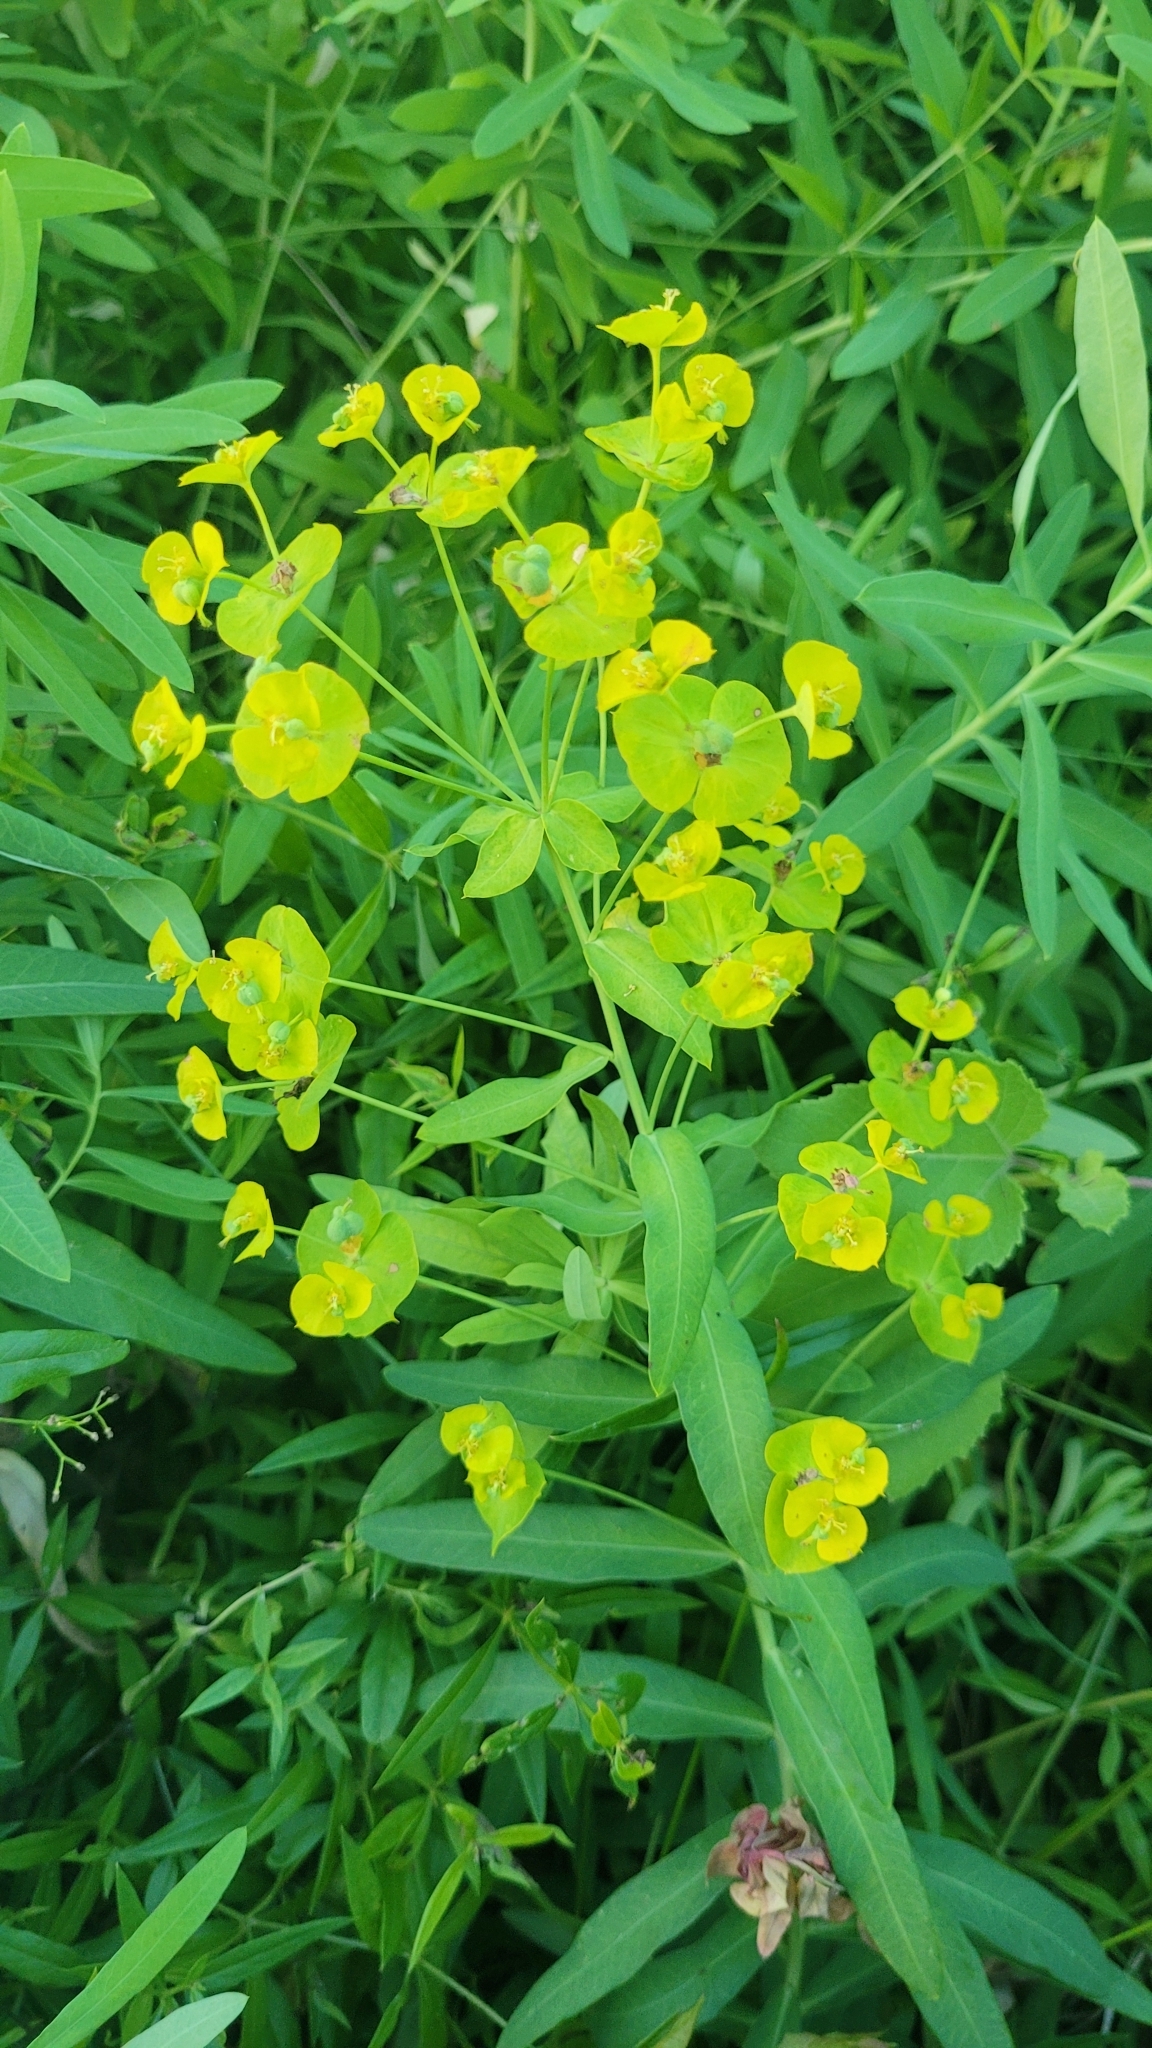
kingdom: Plantae
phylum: Tracheophyta
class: Magnoliopsida
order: Malpighiales
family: Euphorbiaceae
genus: Euphorbia
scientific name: Euphorbia virgata
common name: Leafy spurge
